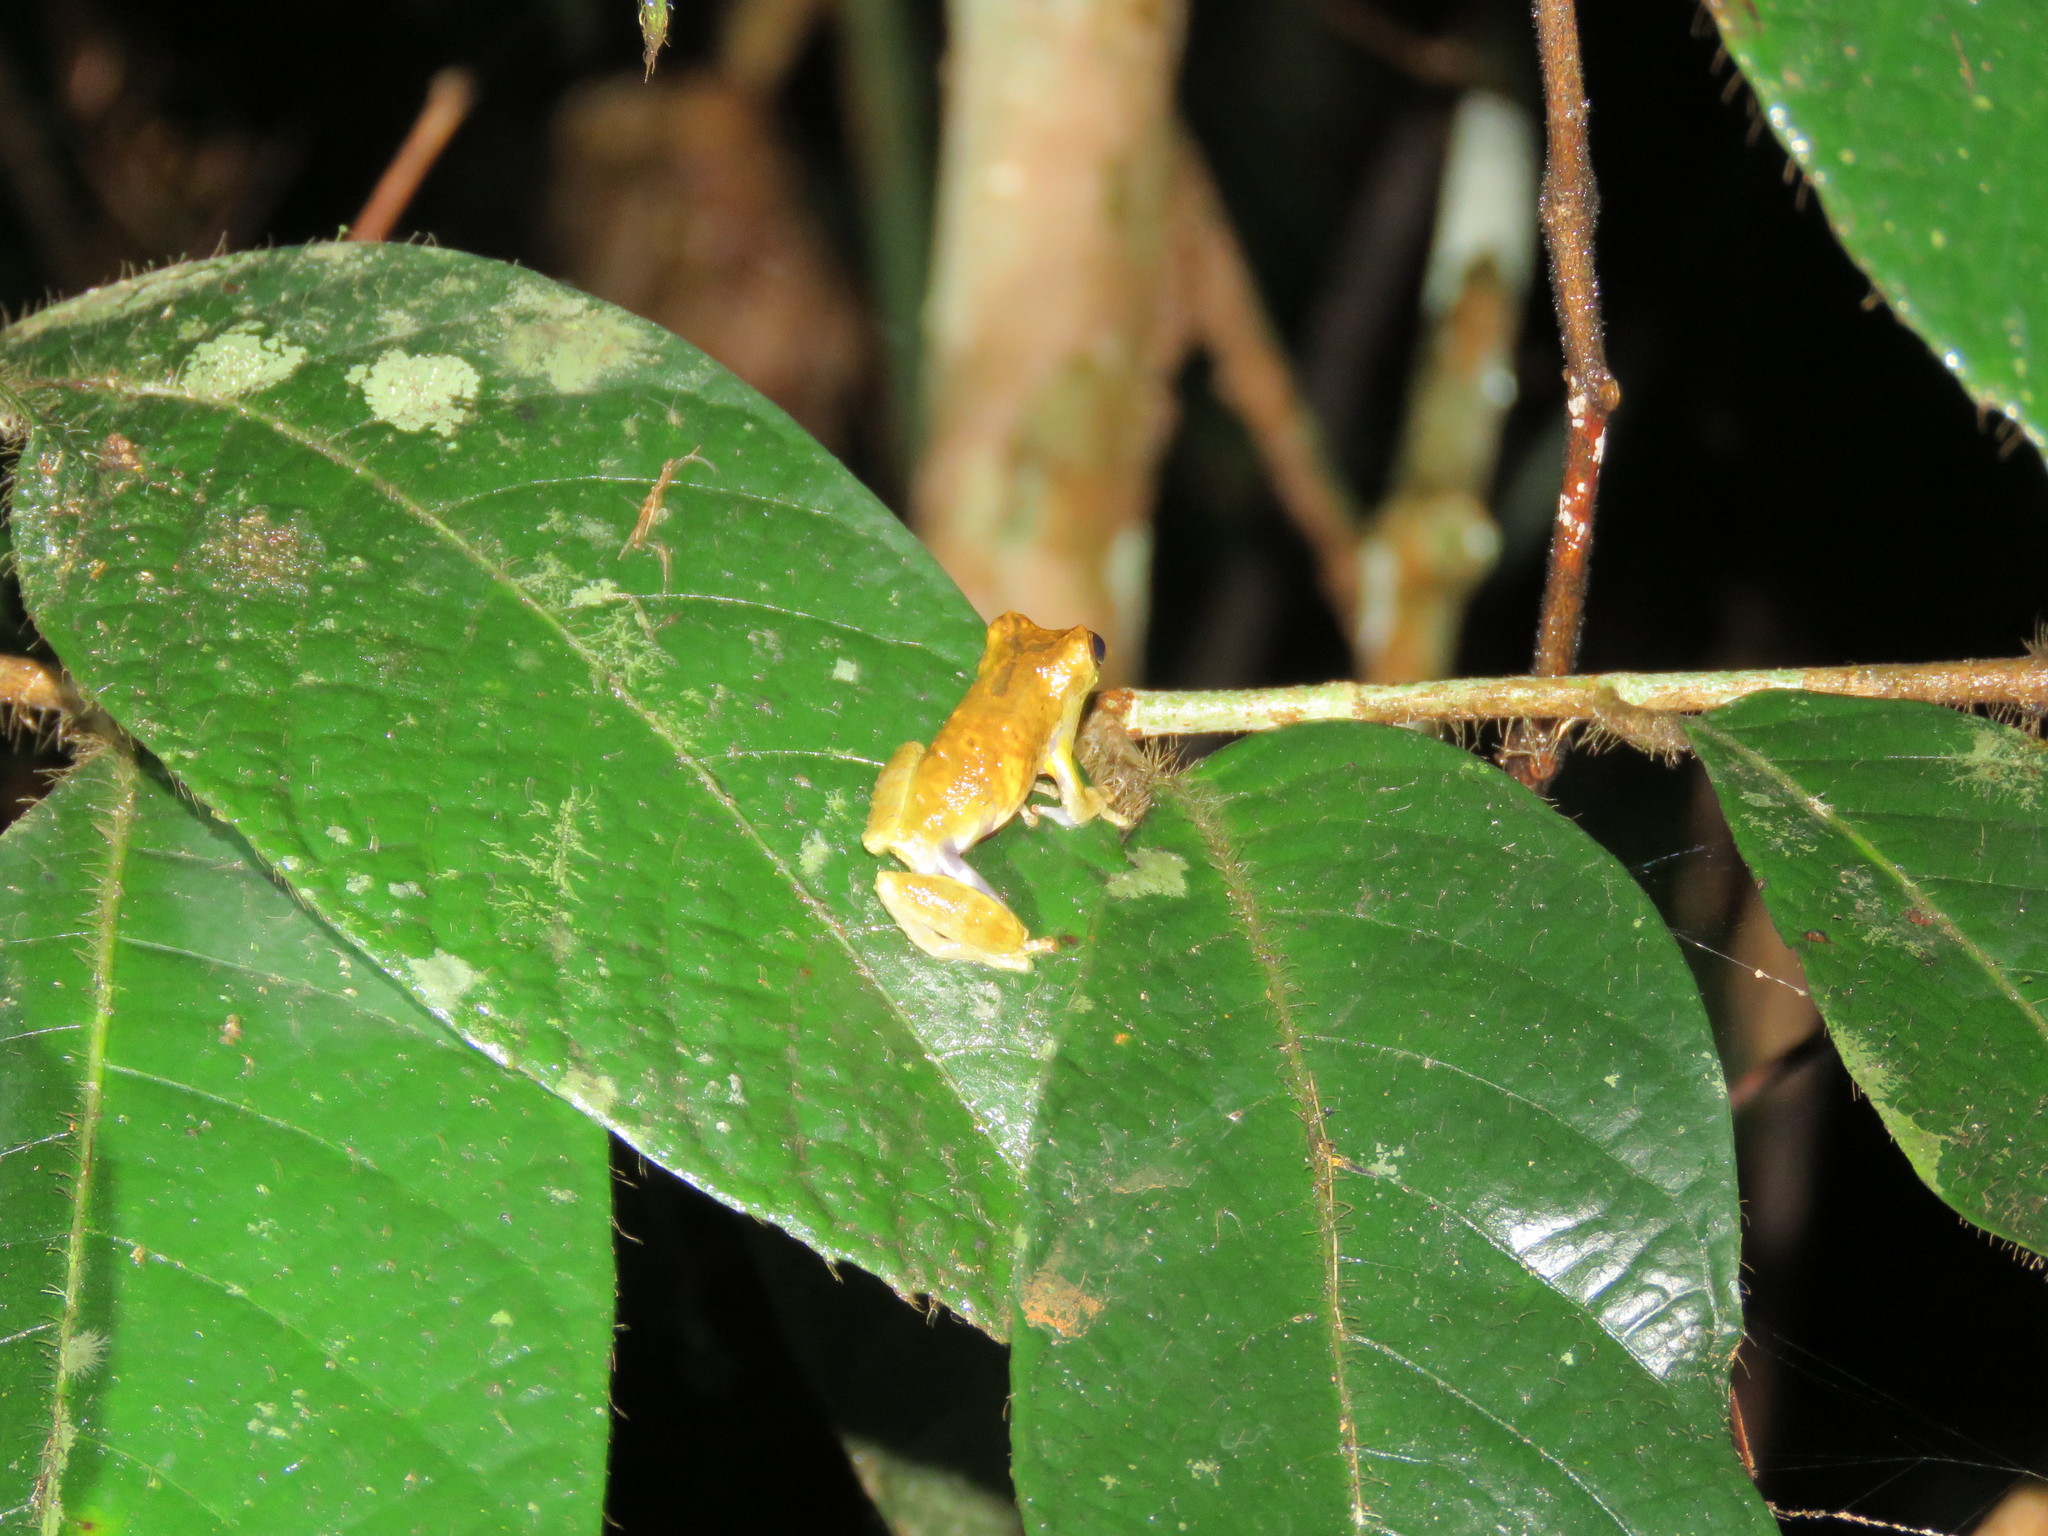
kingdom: Animalia
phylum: Chordata
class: Amphibia
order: Anura
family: Hylidae
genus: Dendropsophus
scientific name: Dendropsophus brevifrons
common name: Crump´s treefrog
